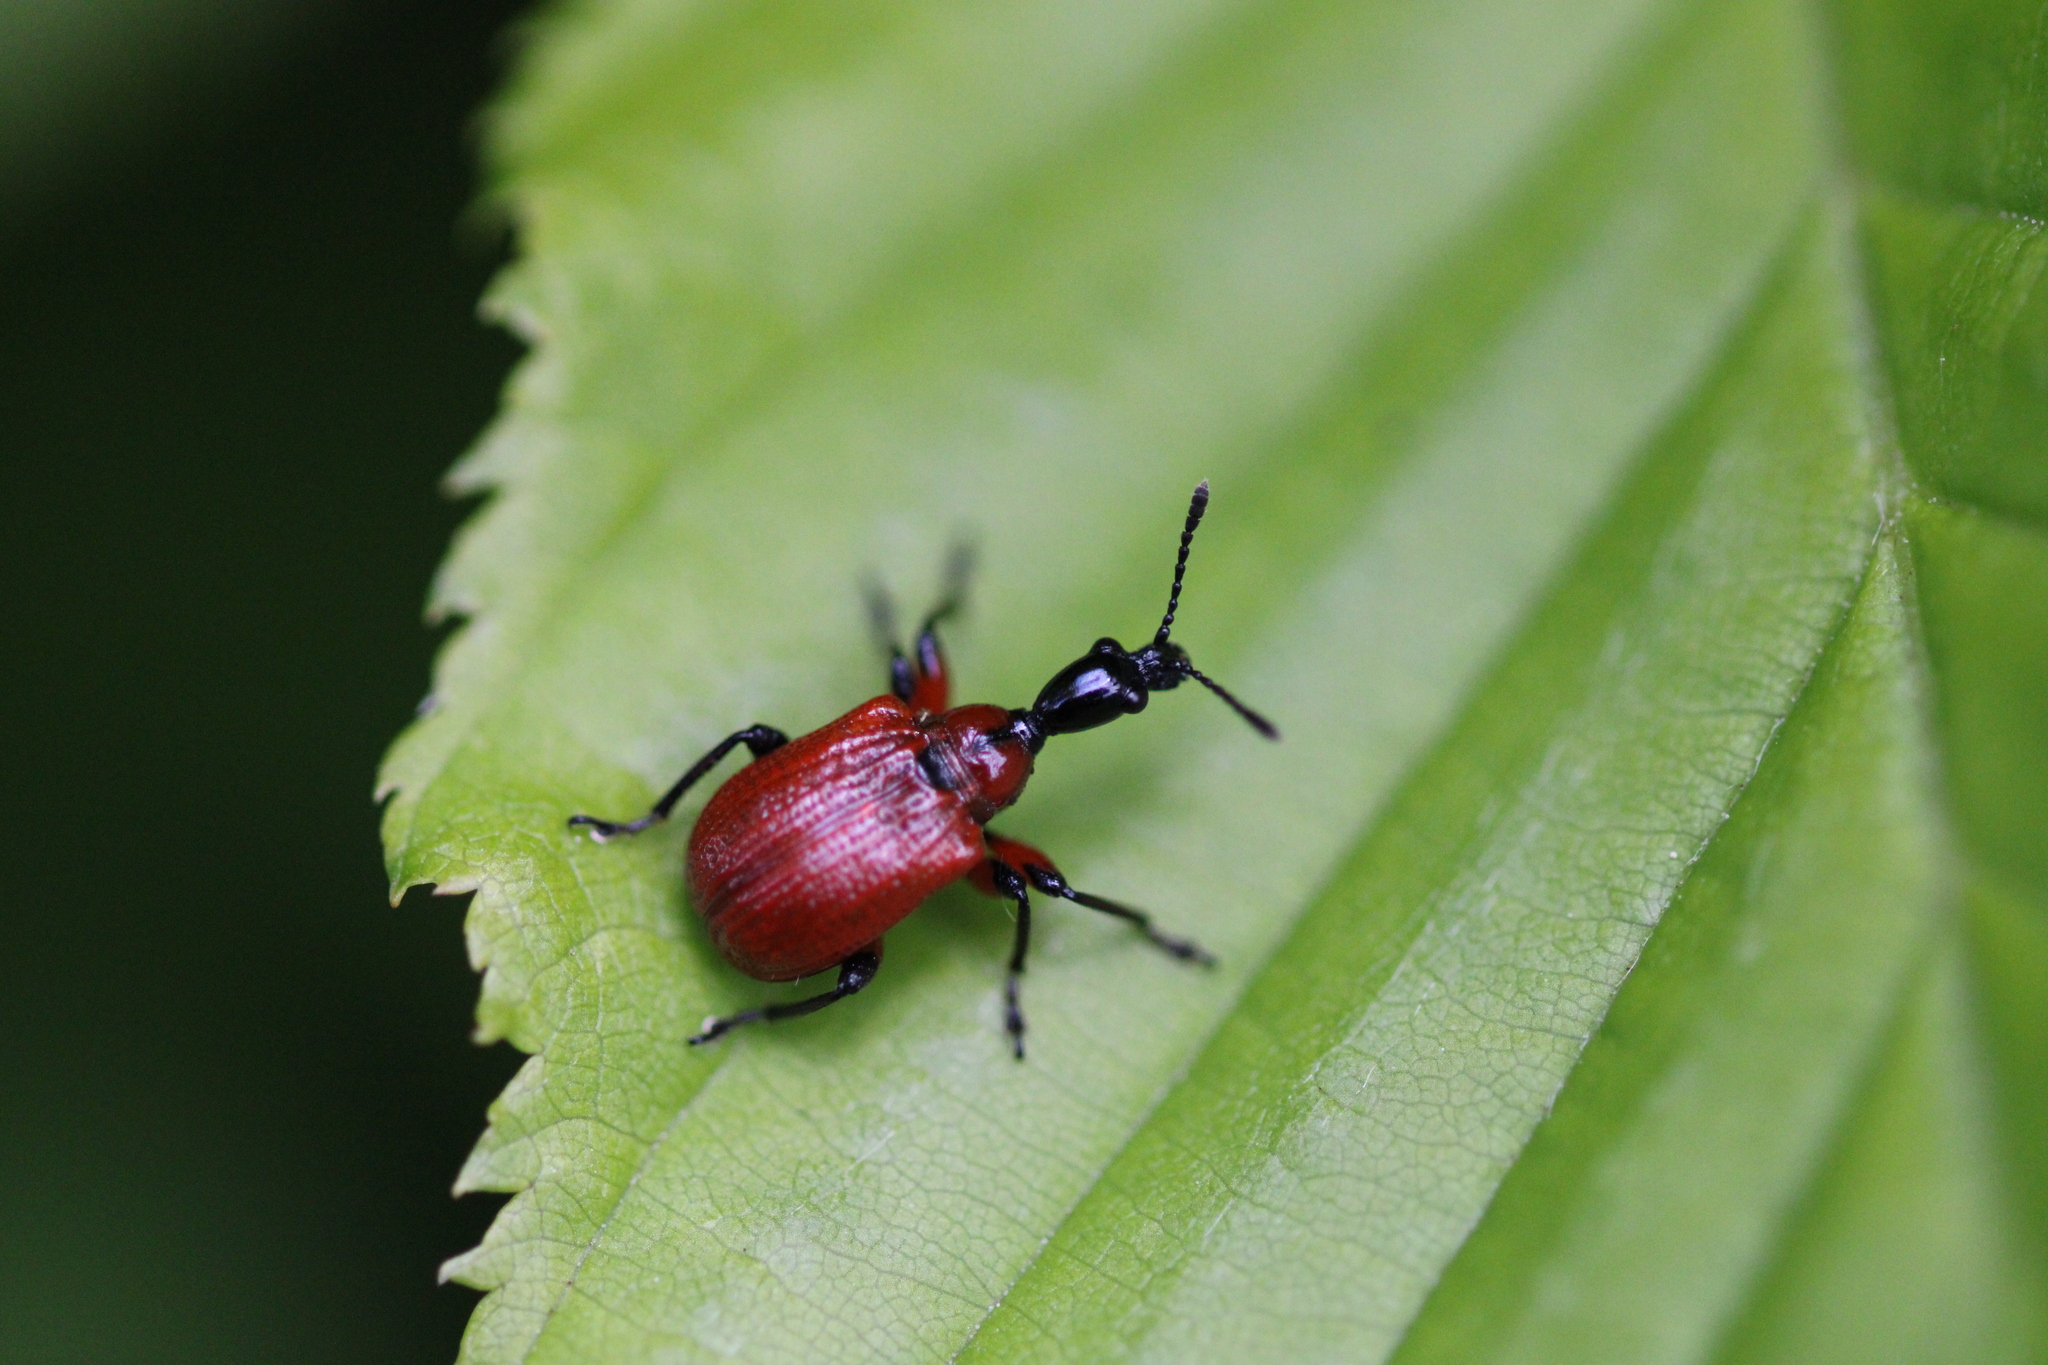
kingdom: Animalia
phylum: Arthropoda
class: Insecta
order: Coleoptera
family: Attelabidae
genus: Apoderus
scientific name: Apoderus coryli
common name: Hazel leaf roller
